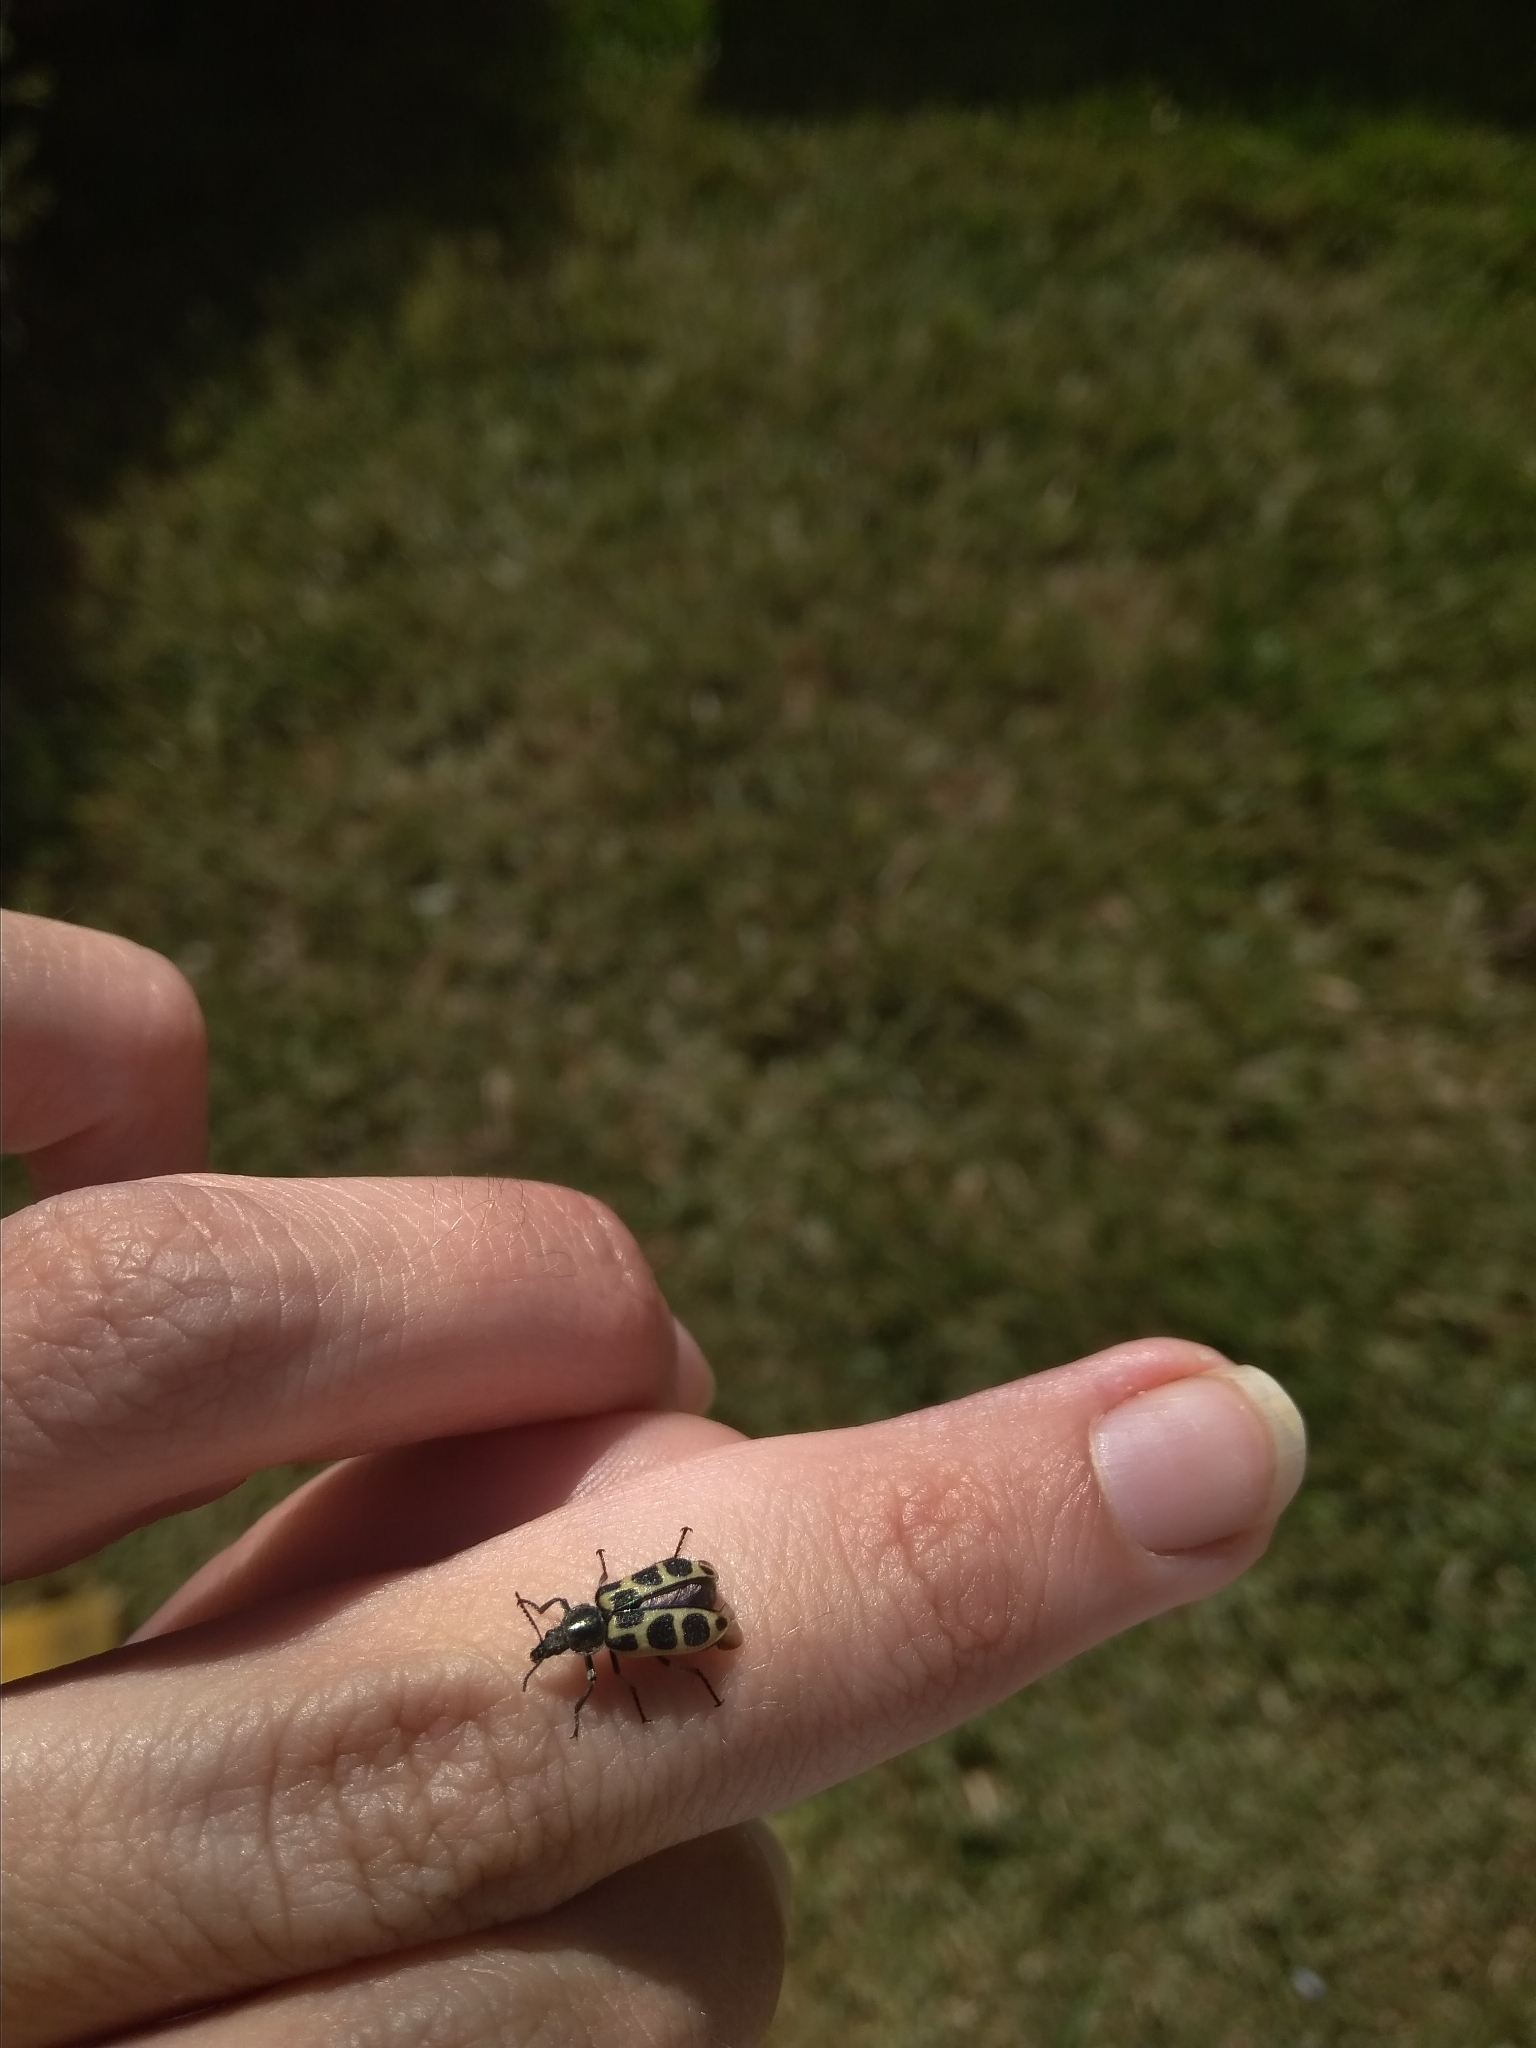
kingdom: Animalia
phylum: Arthropoda
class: Insecta
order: Coleoptera
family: Melyridae
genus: Astylus
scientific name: Astylus
